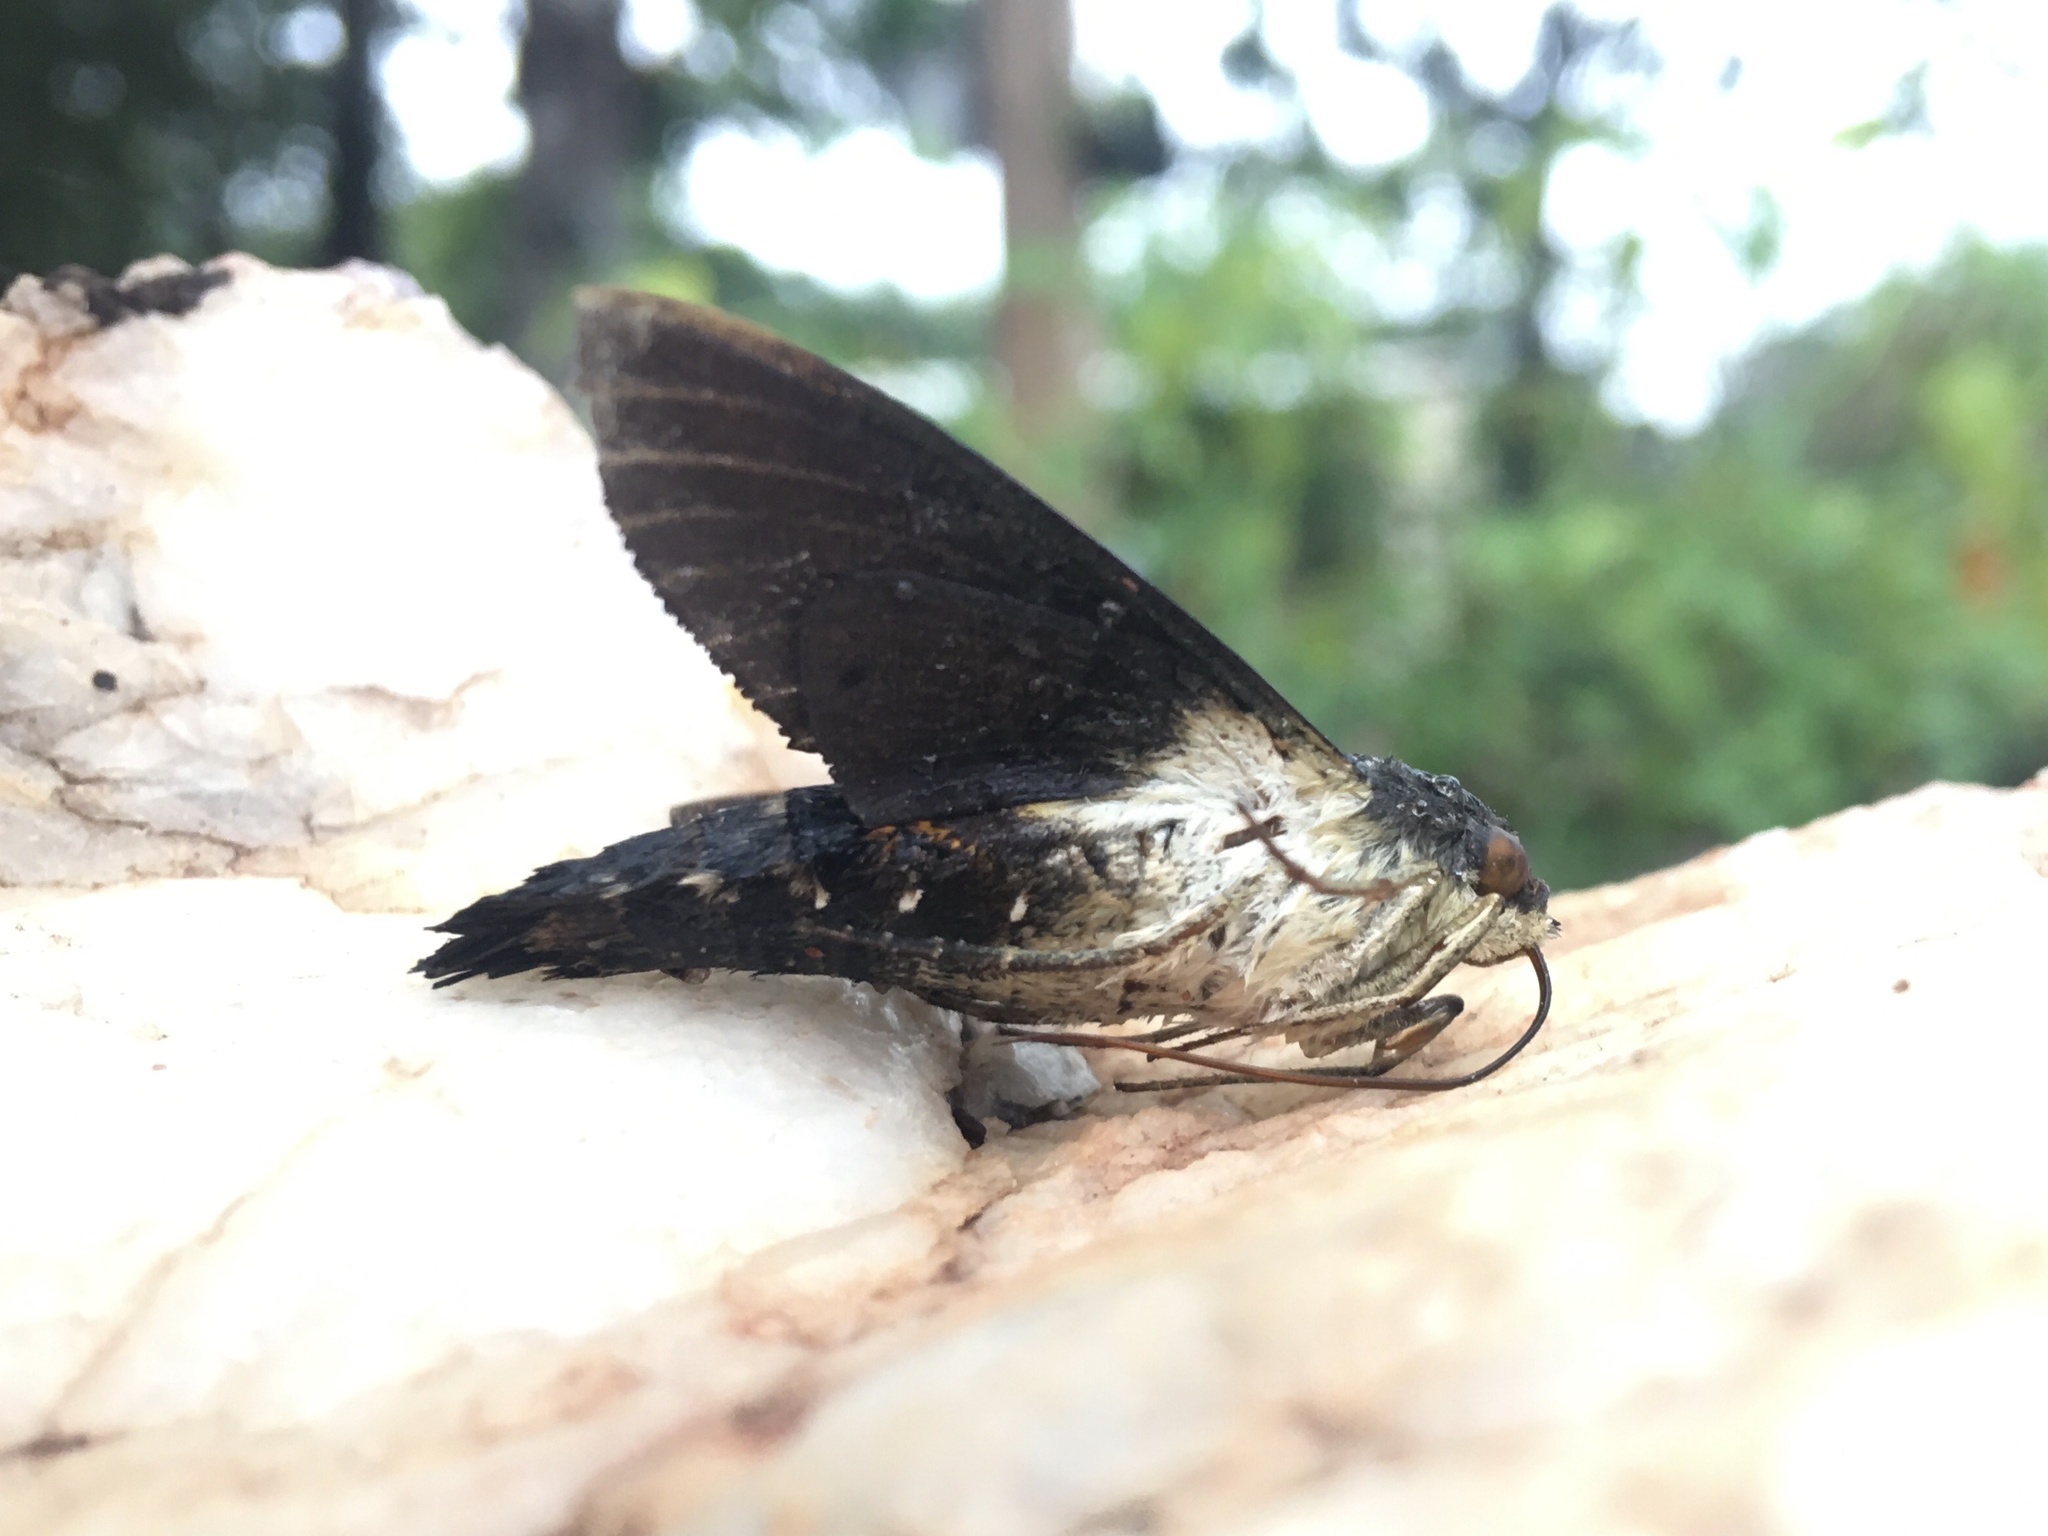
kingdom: Animalia
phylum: Arthropoda
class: Insecta
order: Lepidoptera
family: Sphingidae
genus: Aellopos
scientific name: Aellopos ceculus
